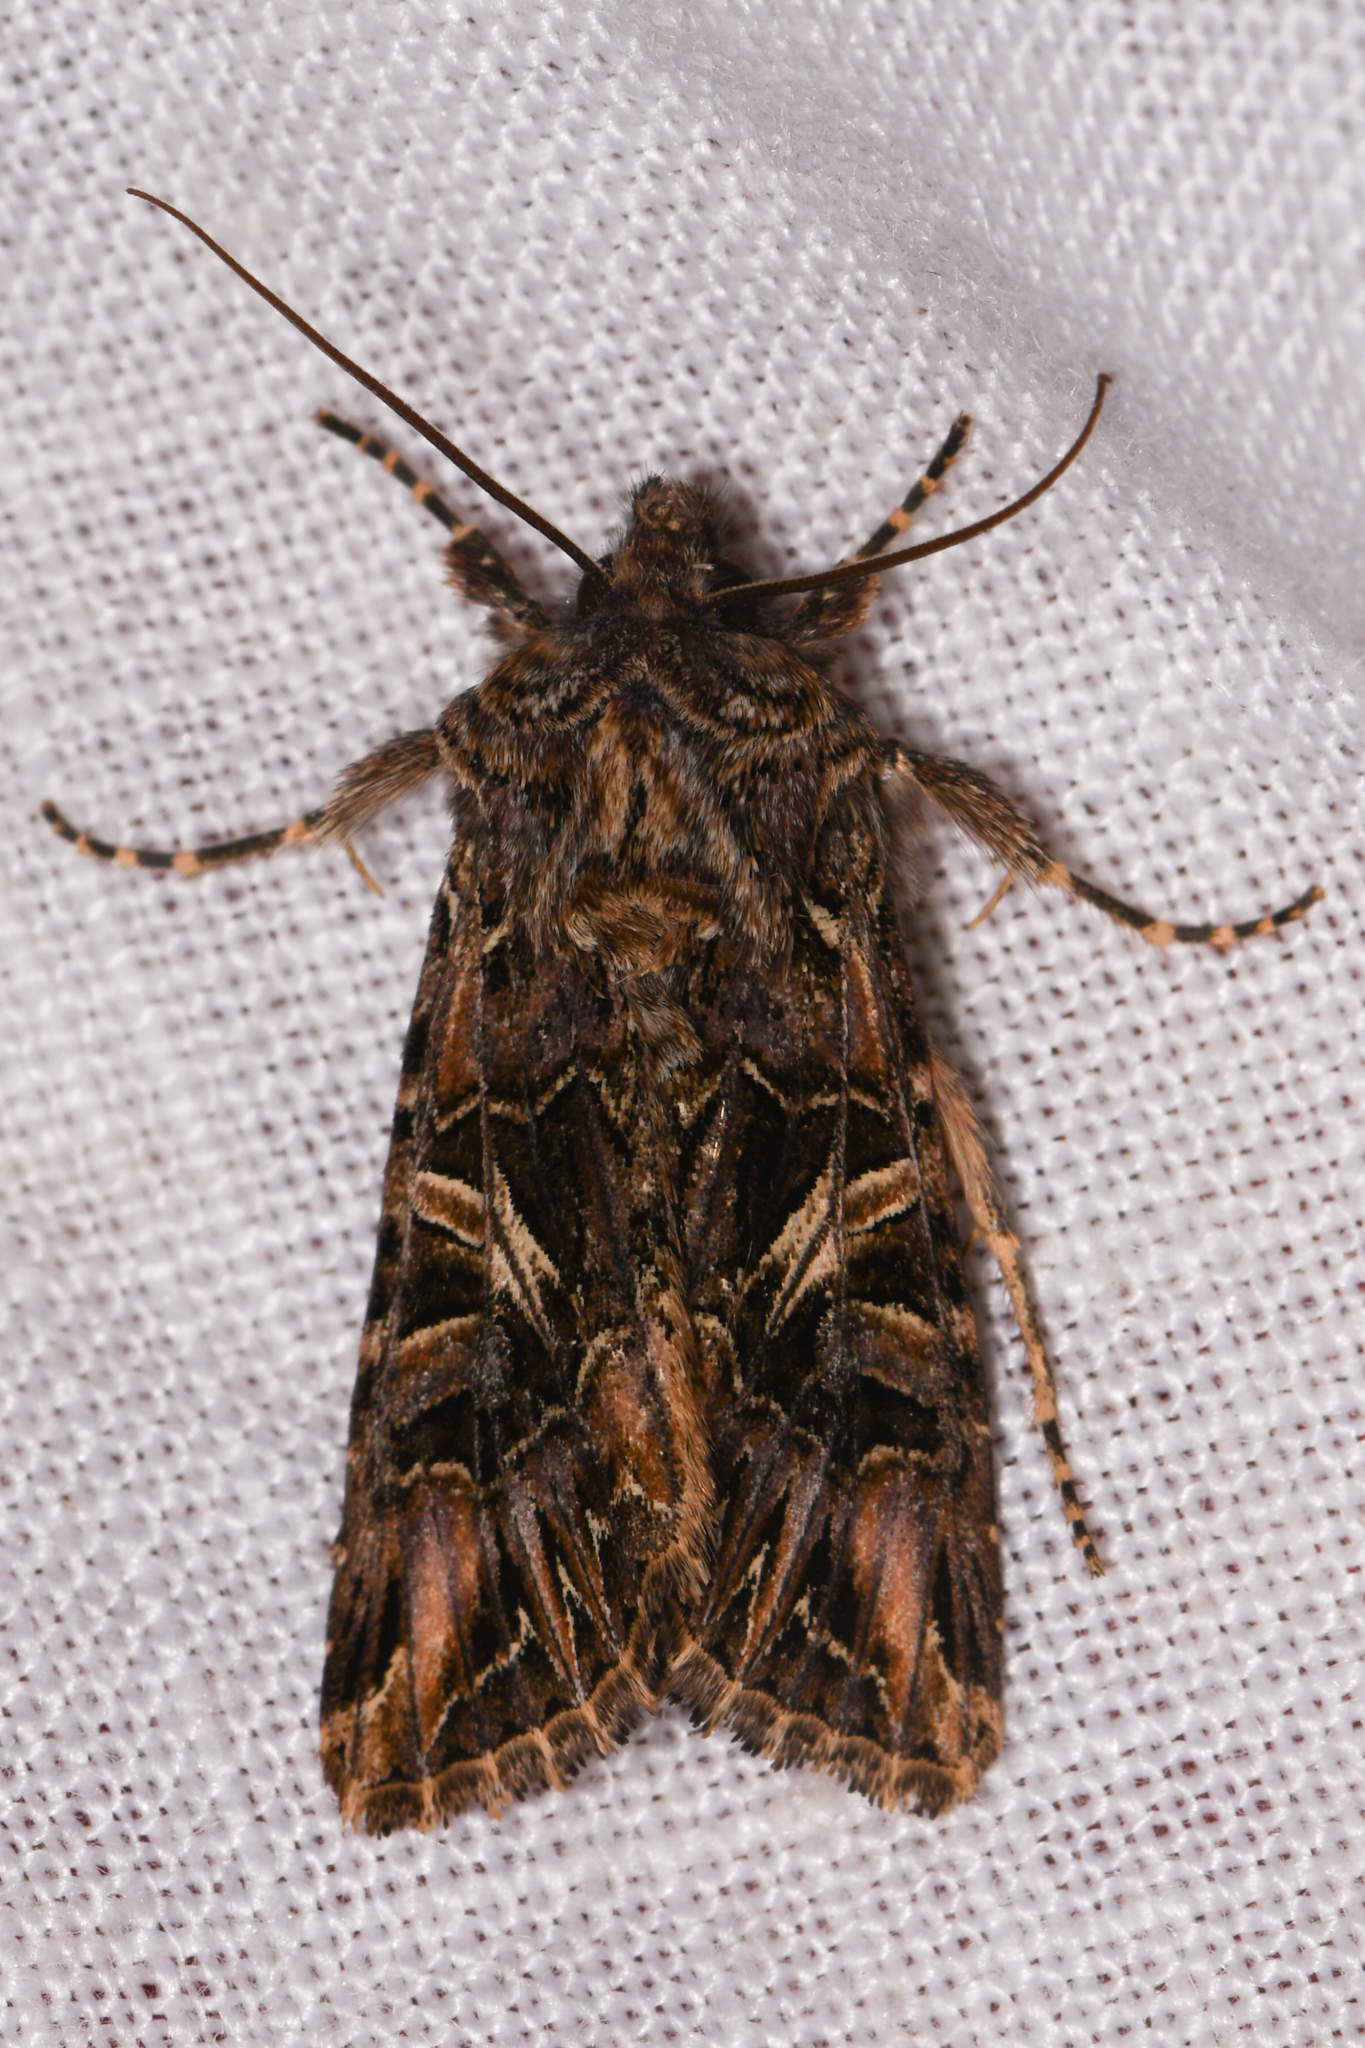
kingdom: Animalia
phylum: Arthropoda
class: Insecta
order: Lepidoptera
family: Noctuidae
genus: Anarta
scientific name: Anarta farnhami
